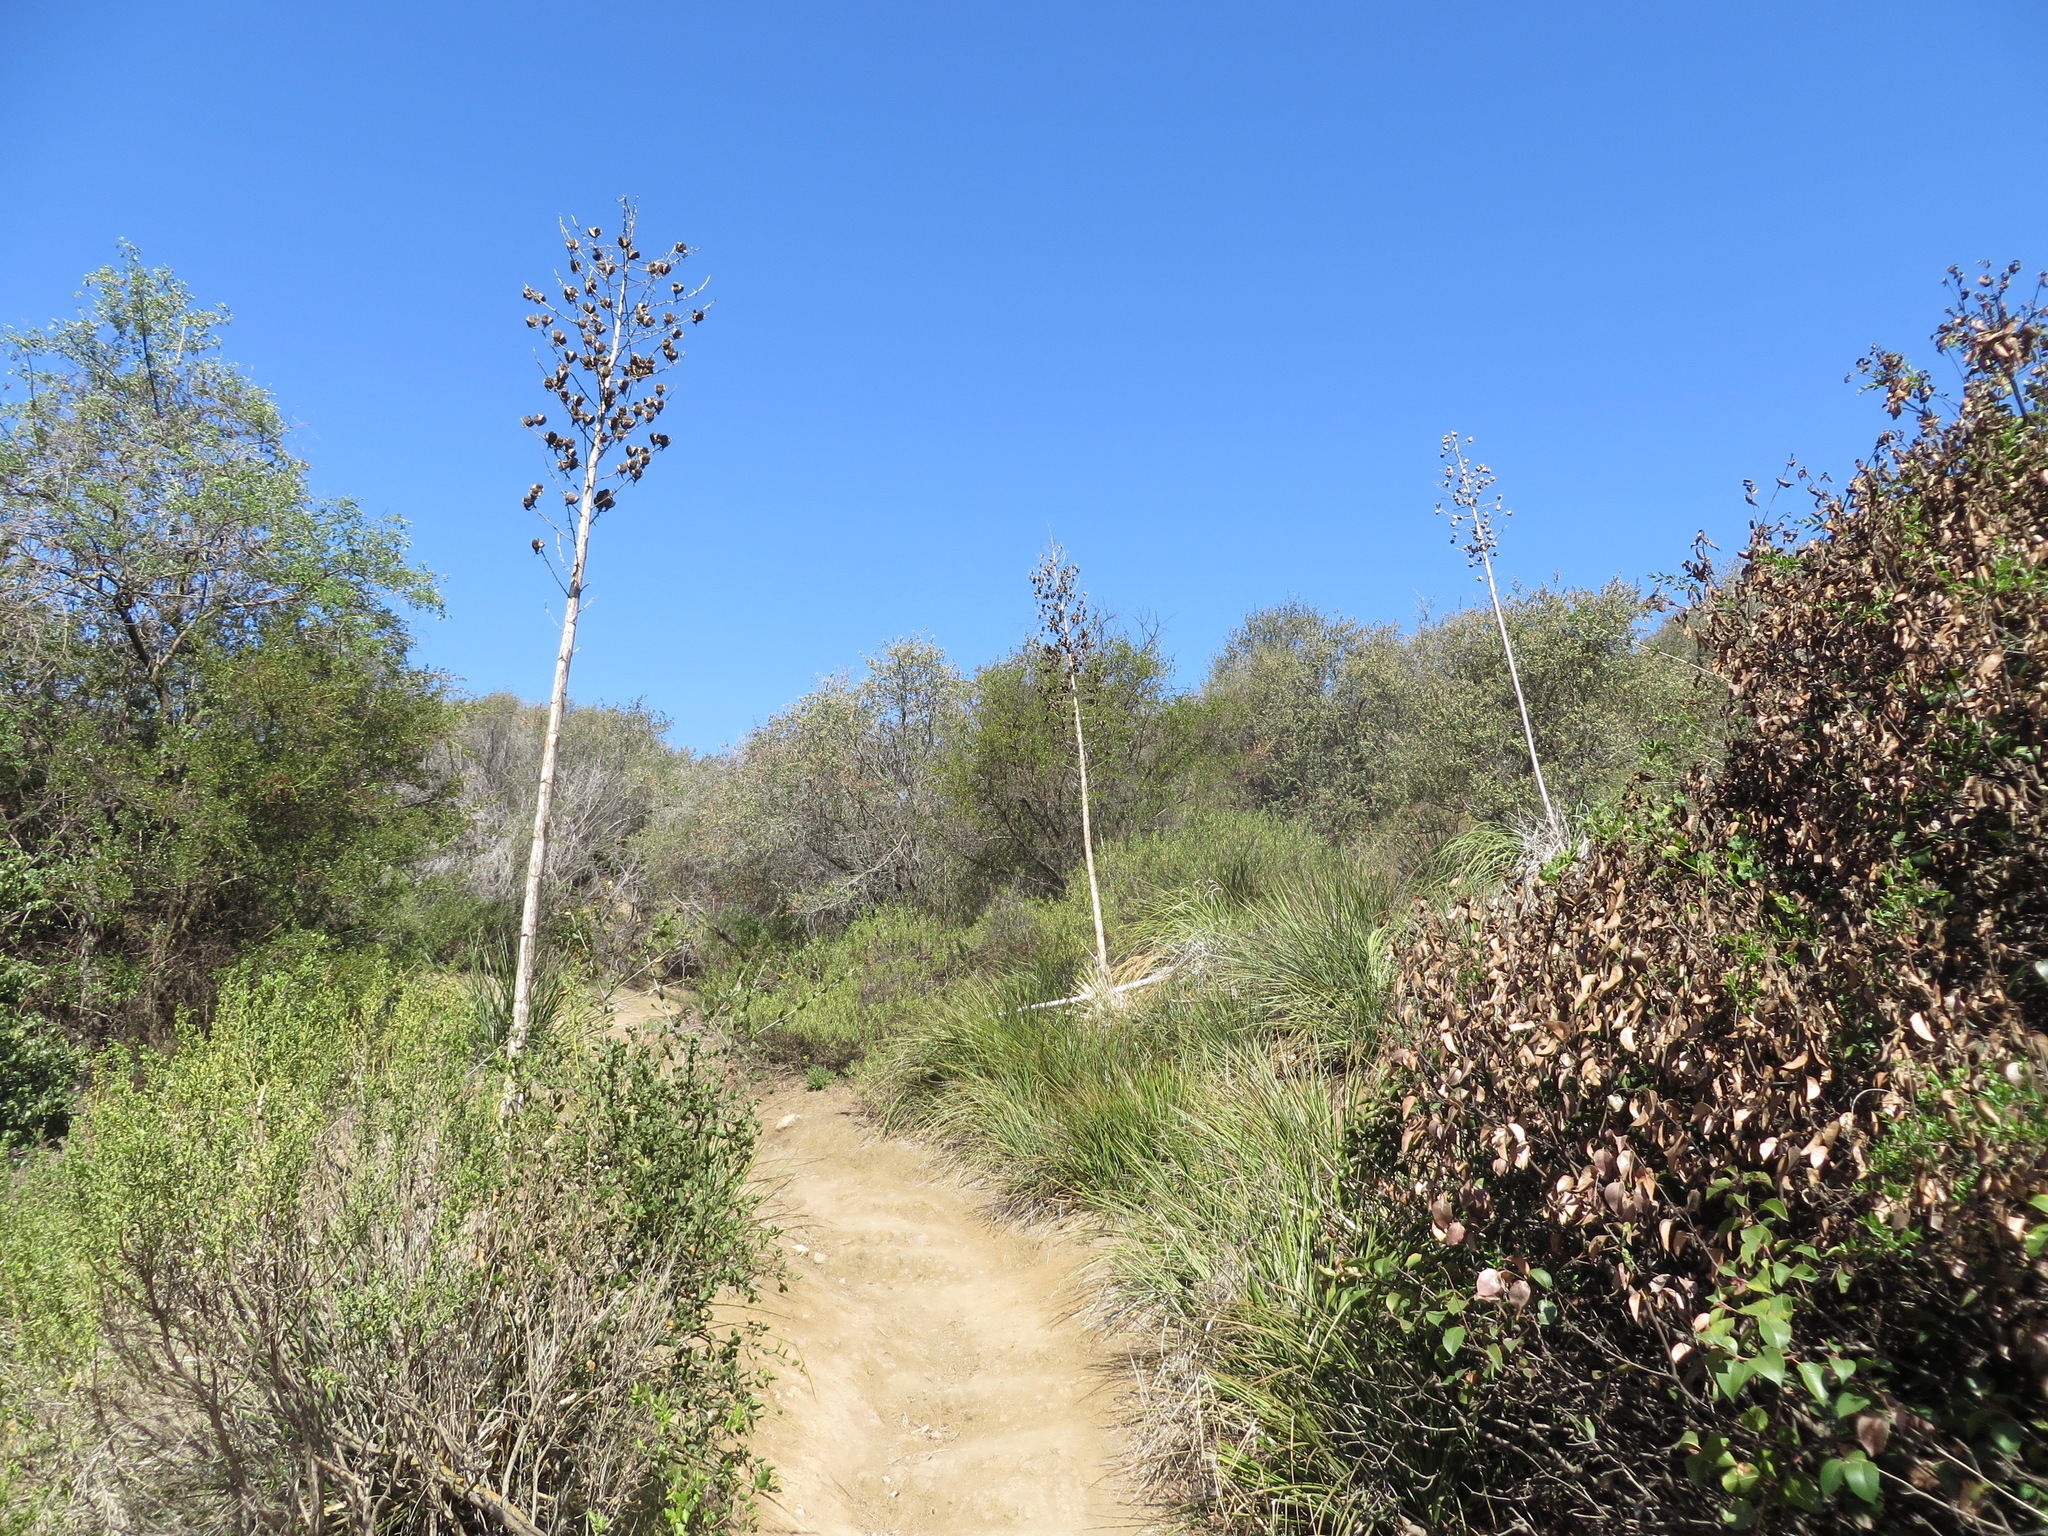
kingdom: Plantae
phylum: Tracheophyta
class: Liliopsida
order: Asparagales
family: Asparagaceae
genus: Hesperoyucca
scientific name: Hesperoyucca whipplei
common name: Our lord's-candle
